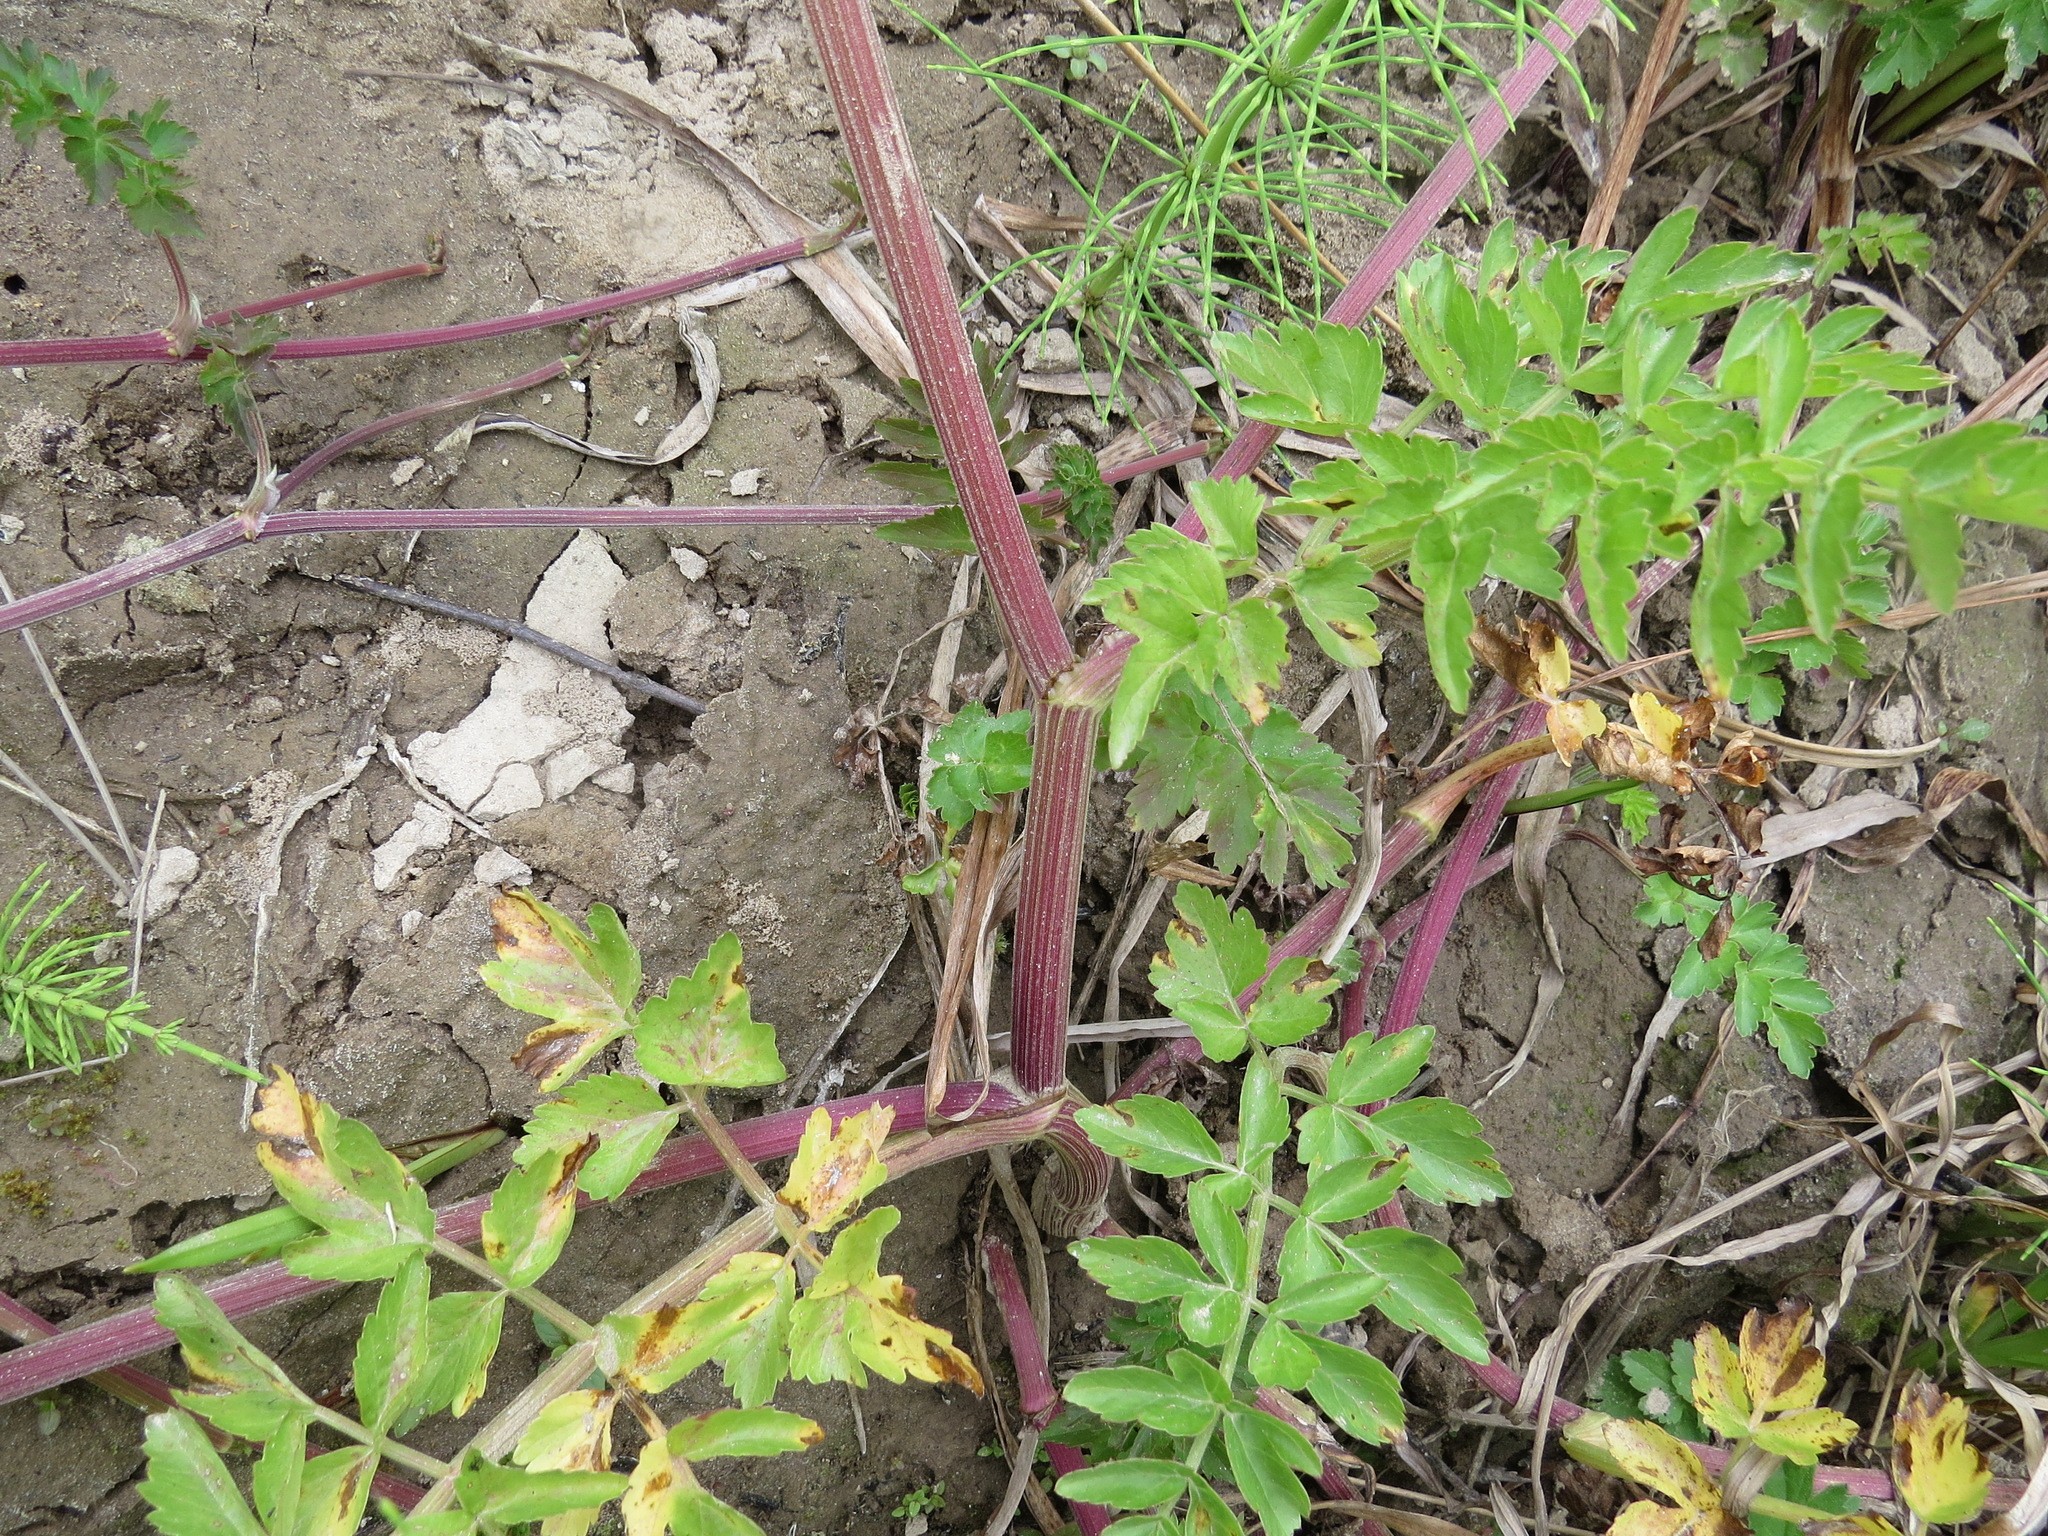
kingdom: Plantae
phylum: Tracheophyta
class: Magnoliopsida
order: Apiales
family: Apiaceae
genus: Oenanthe
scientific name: Oenanthe sarmentosa
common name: American water-parsley
